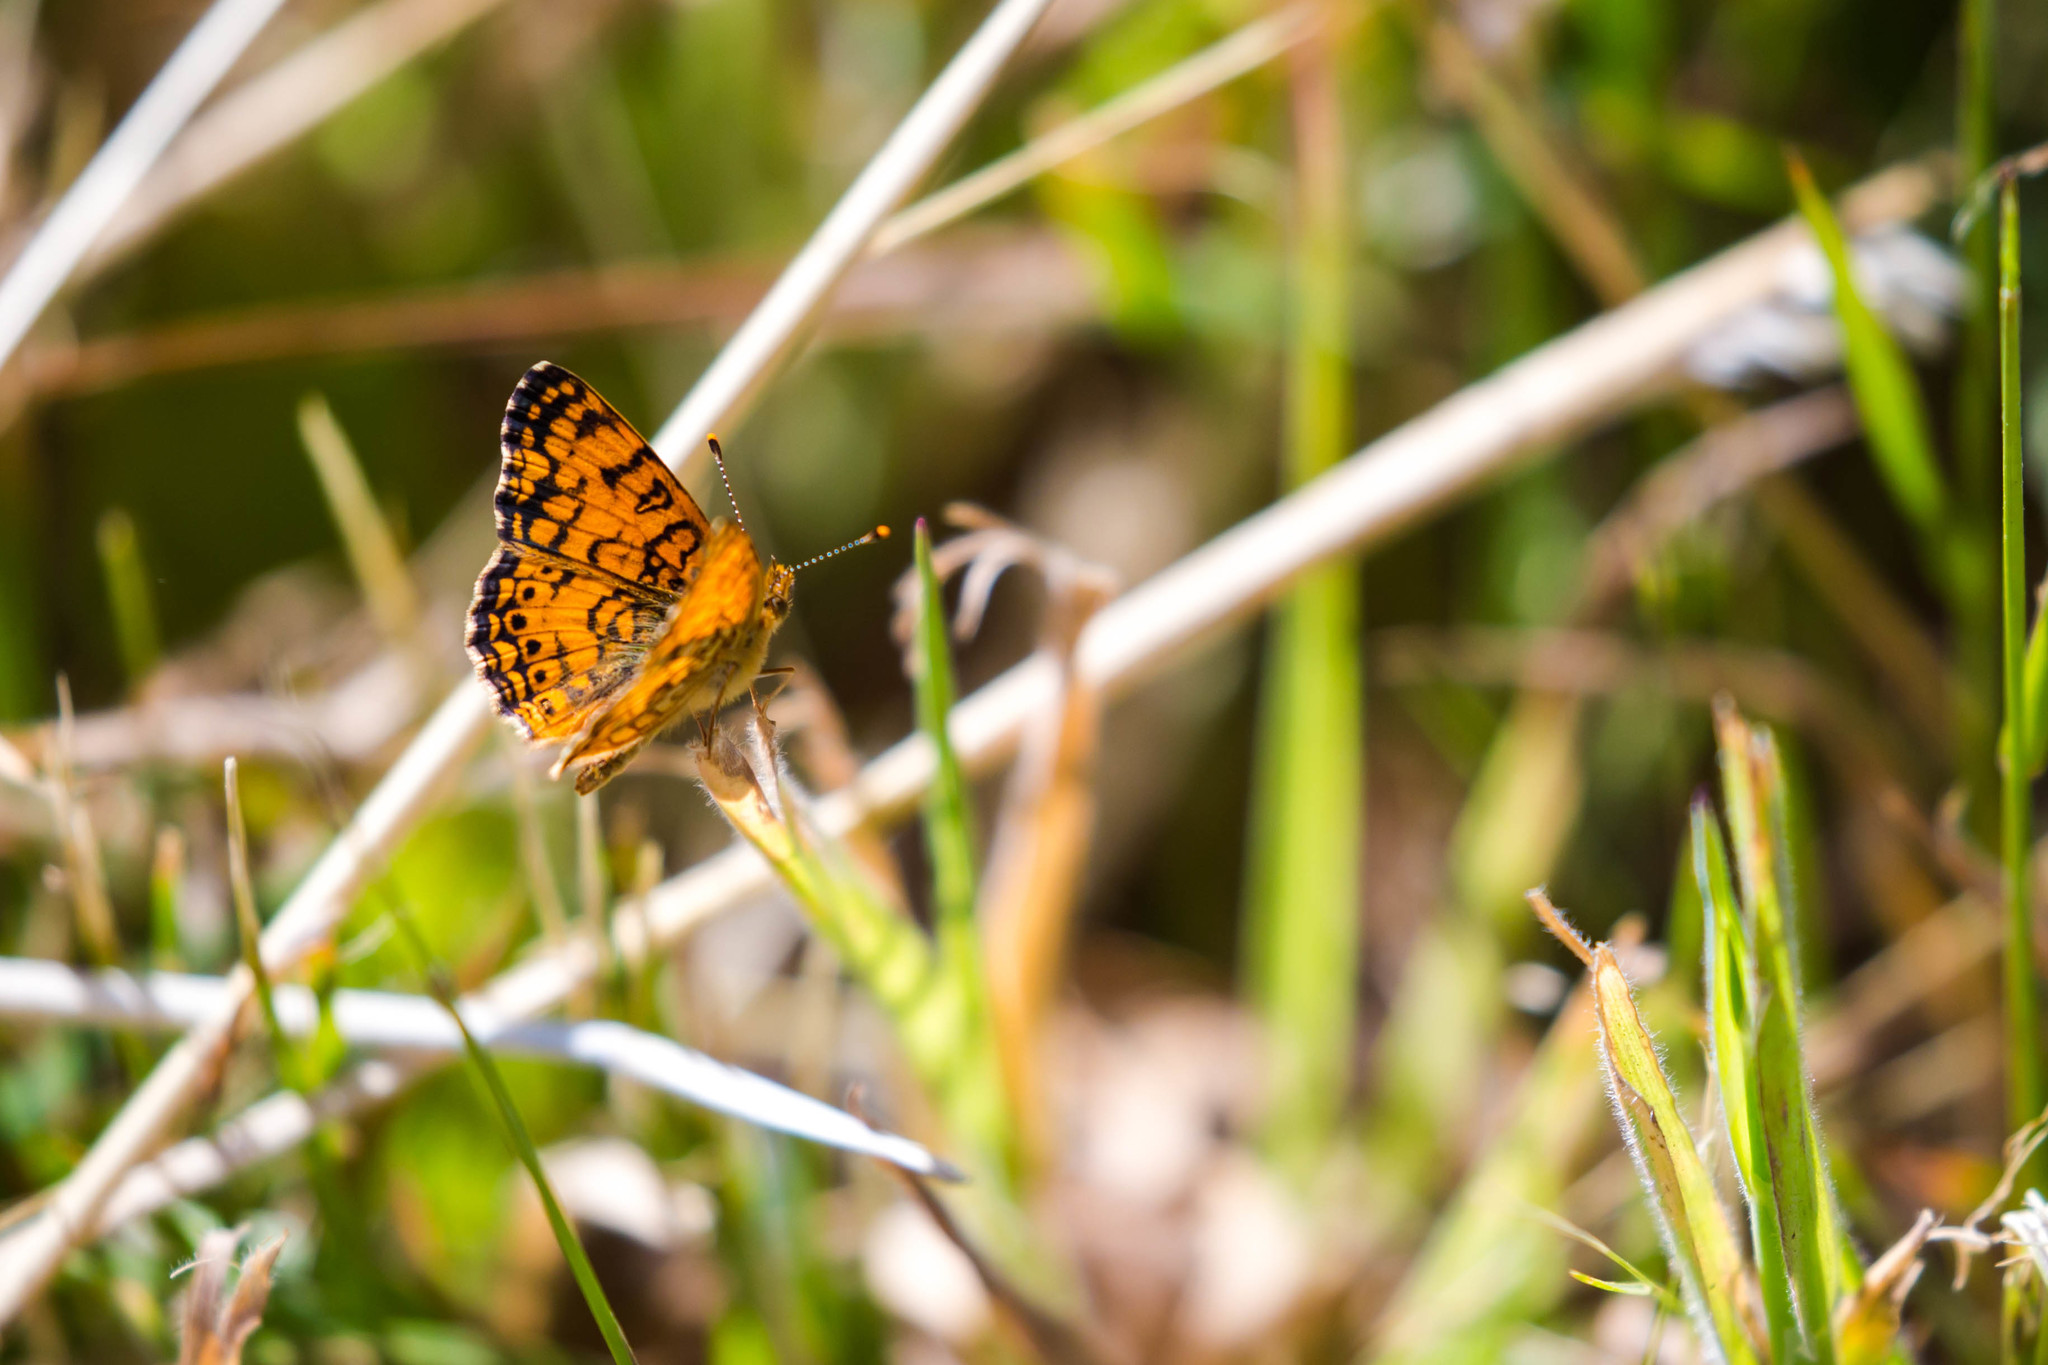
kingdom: Animalia
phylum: Arthropoda
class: Insecta
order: Lepidoptera
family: Nymphalidae
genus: Eresia
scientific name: Eresia aveyrona
